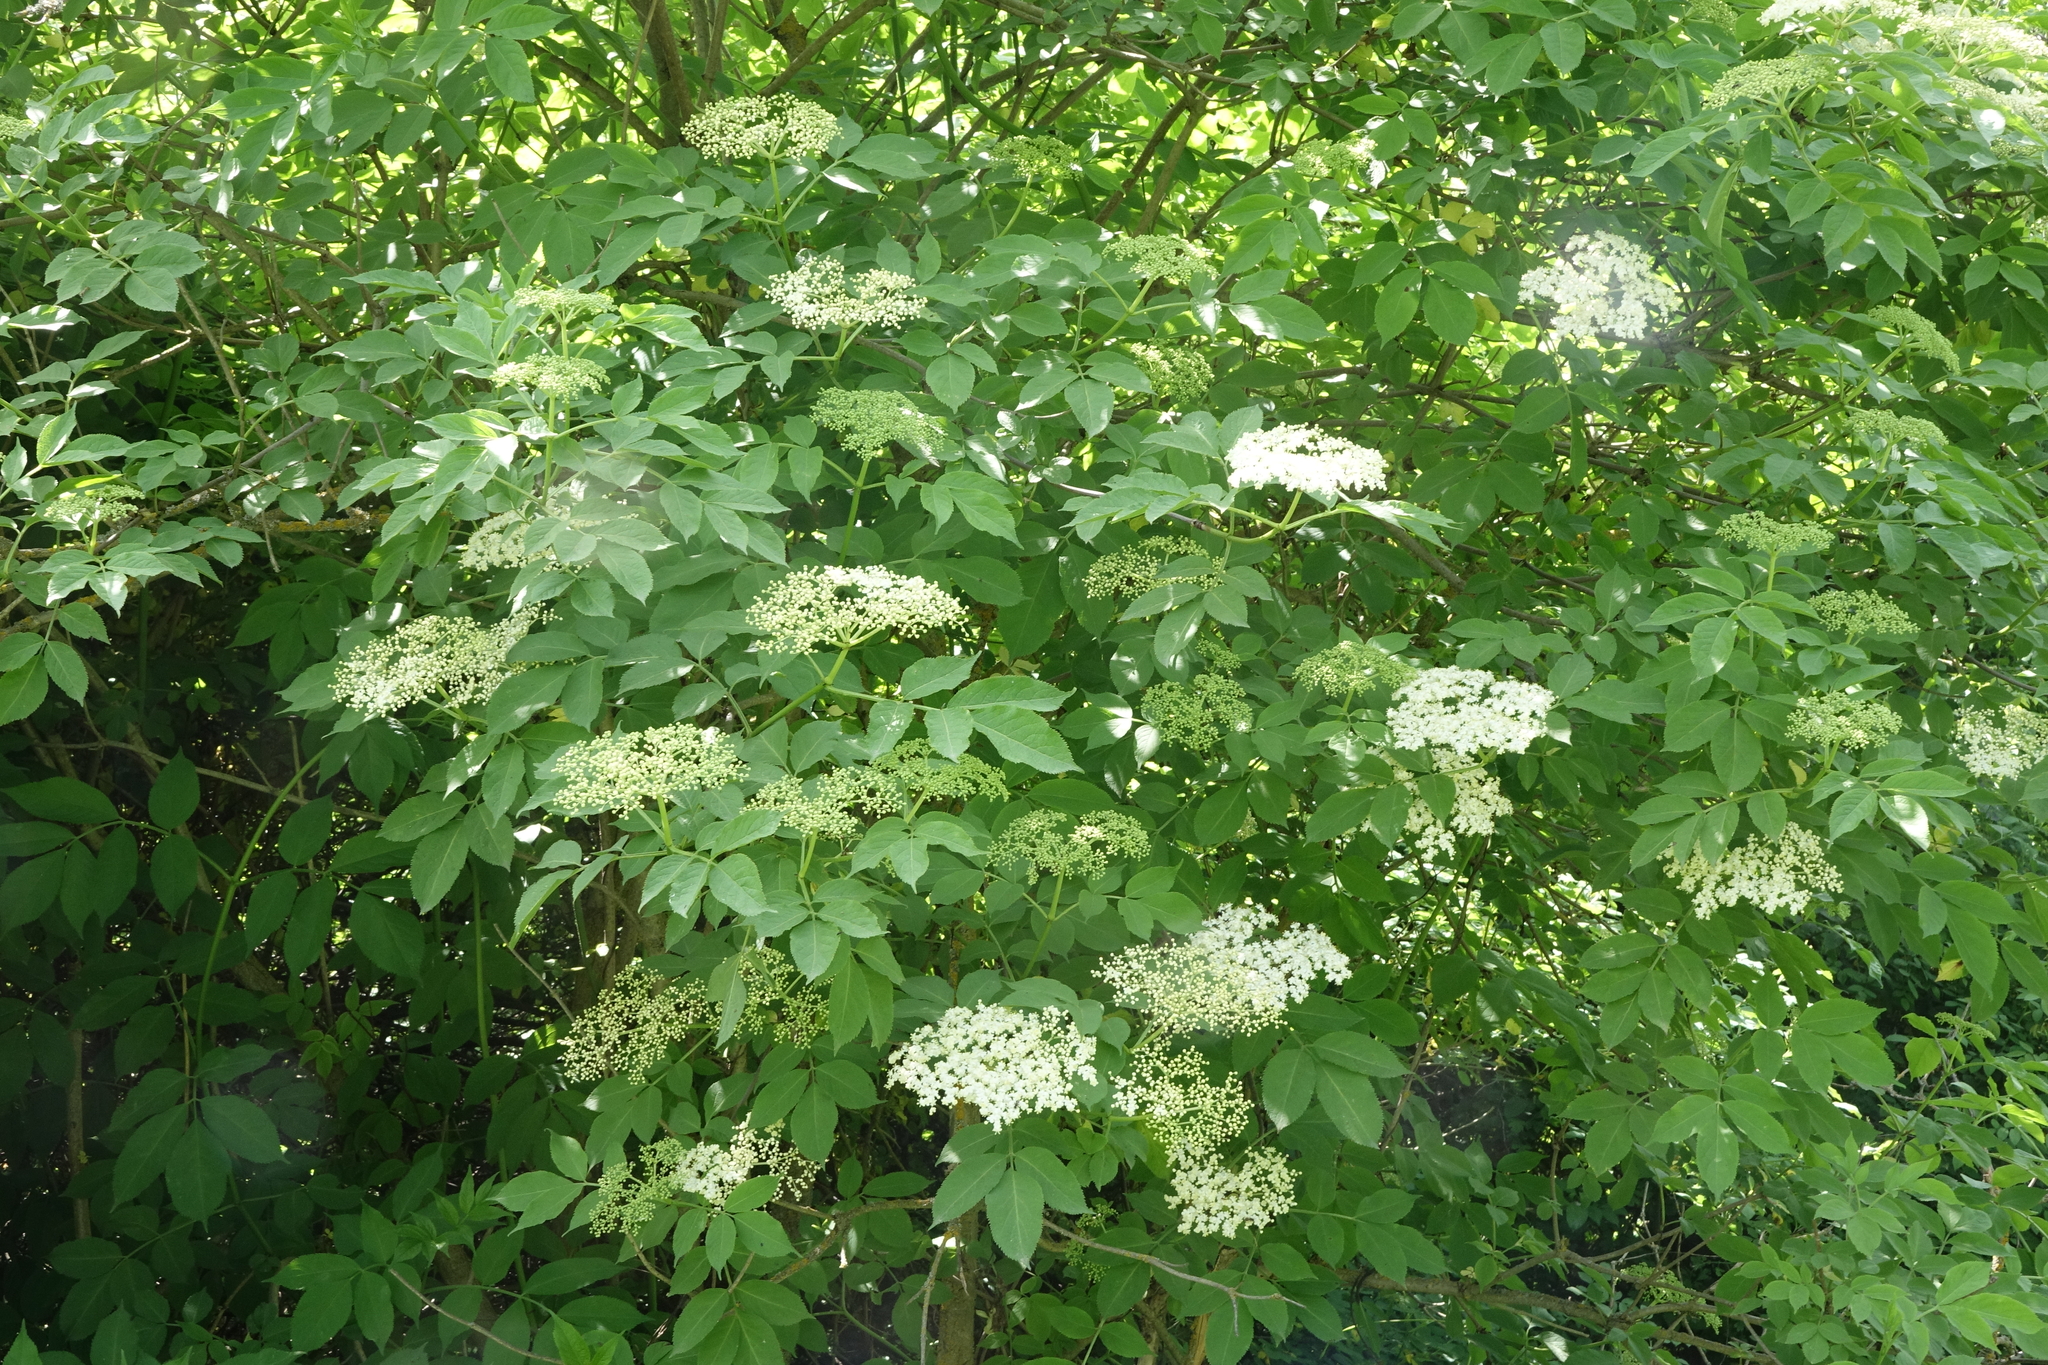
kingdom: Plantae
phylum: Tracheophyta
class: Magnoliopsida
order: Dipsacales
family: Viburnaceae
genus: Sambucus
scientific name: Sambucus nigra
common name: Elder
